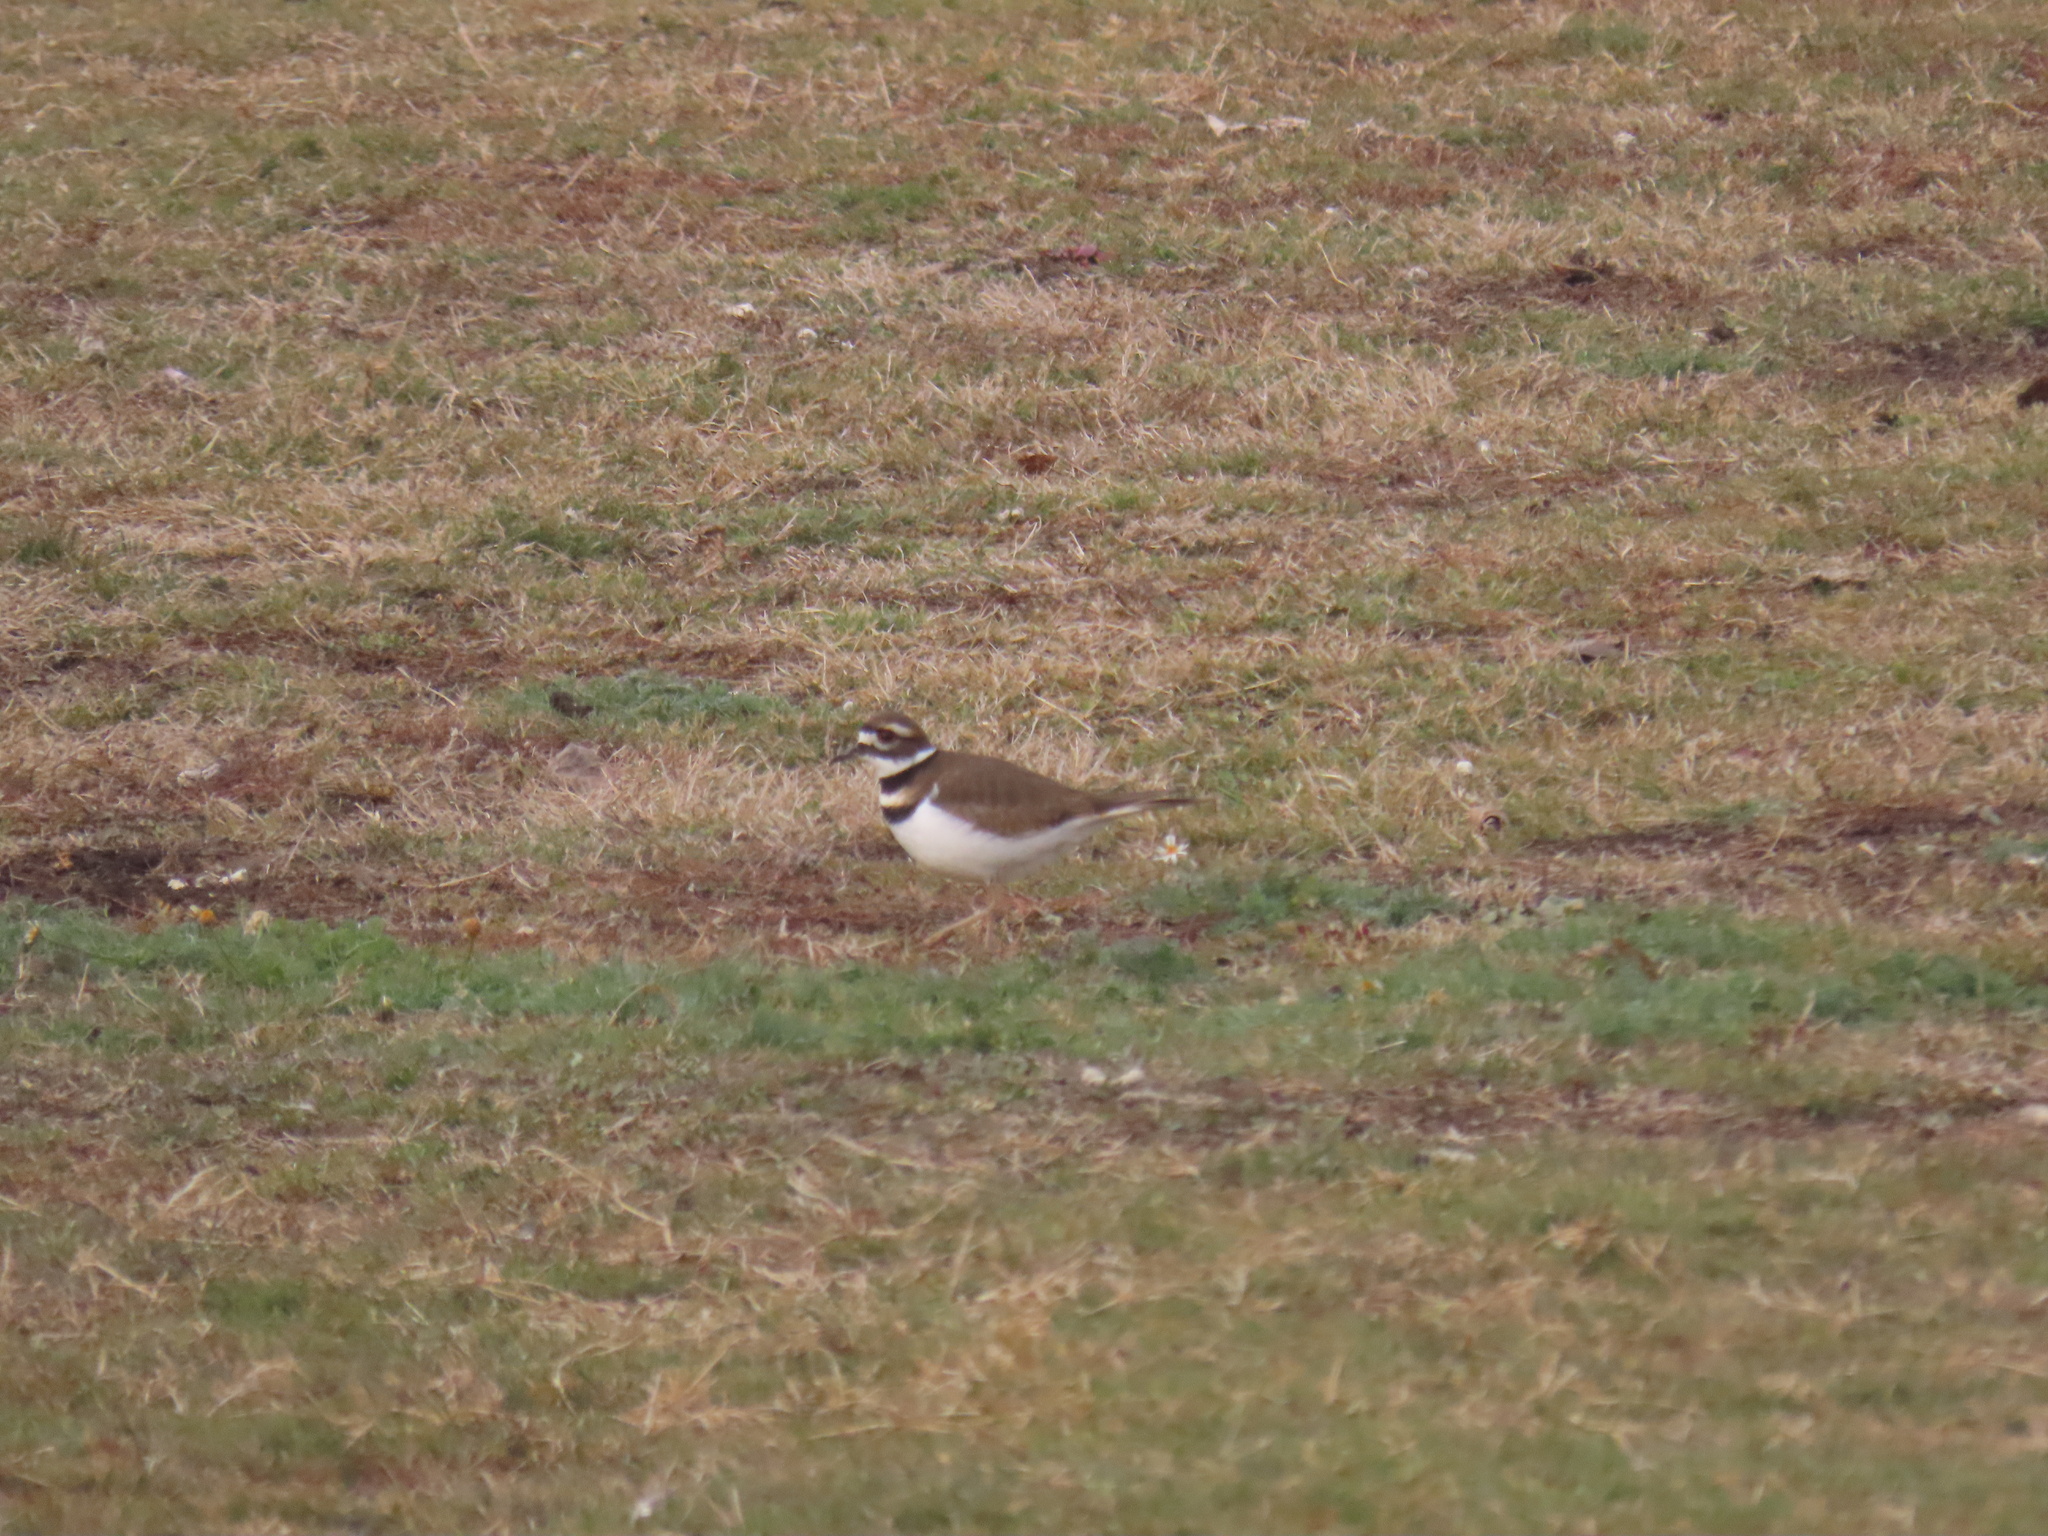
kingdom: Animalia
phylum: Chordata
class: Aves
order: Charadriiformes
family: Charadriidae
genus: Charadrius
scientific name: Charadrius vociferus
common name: Killdeer
